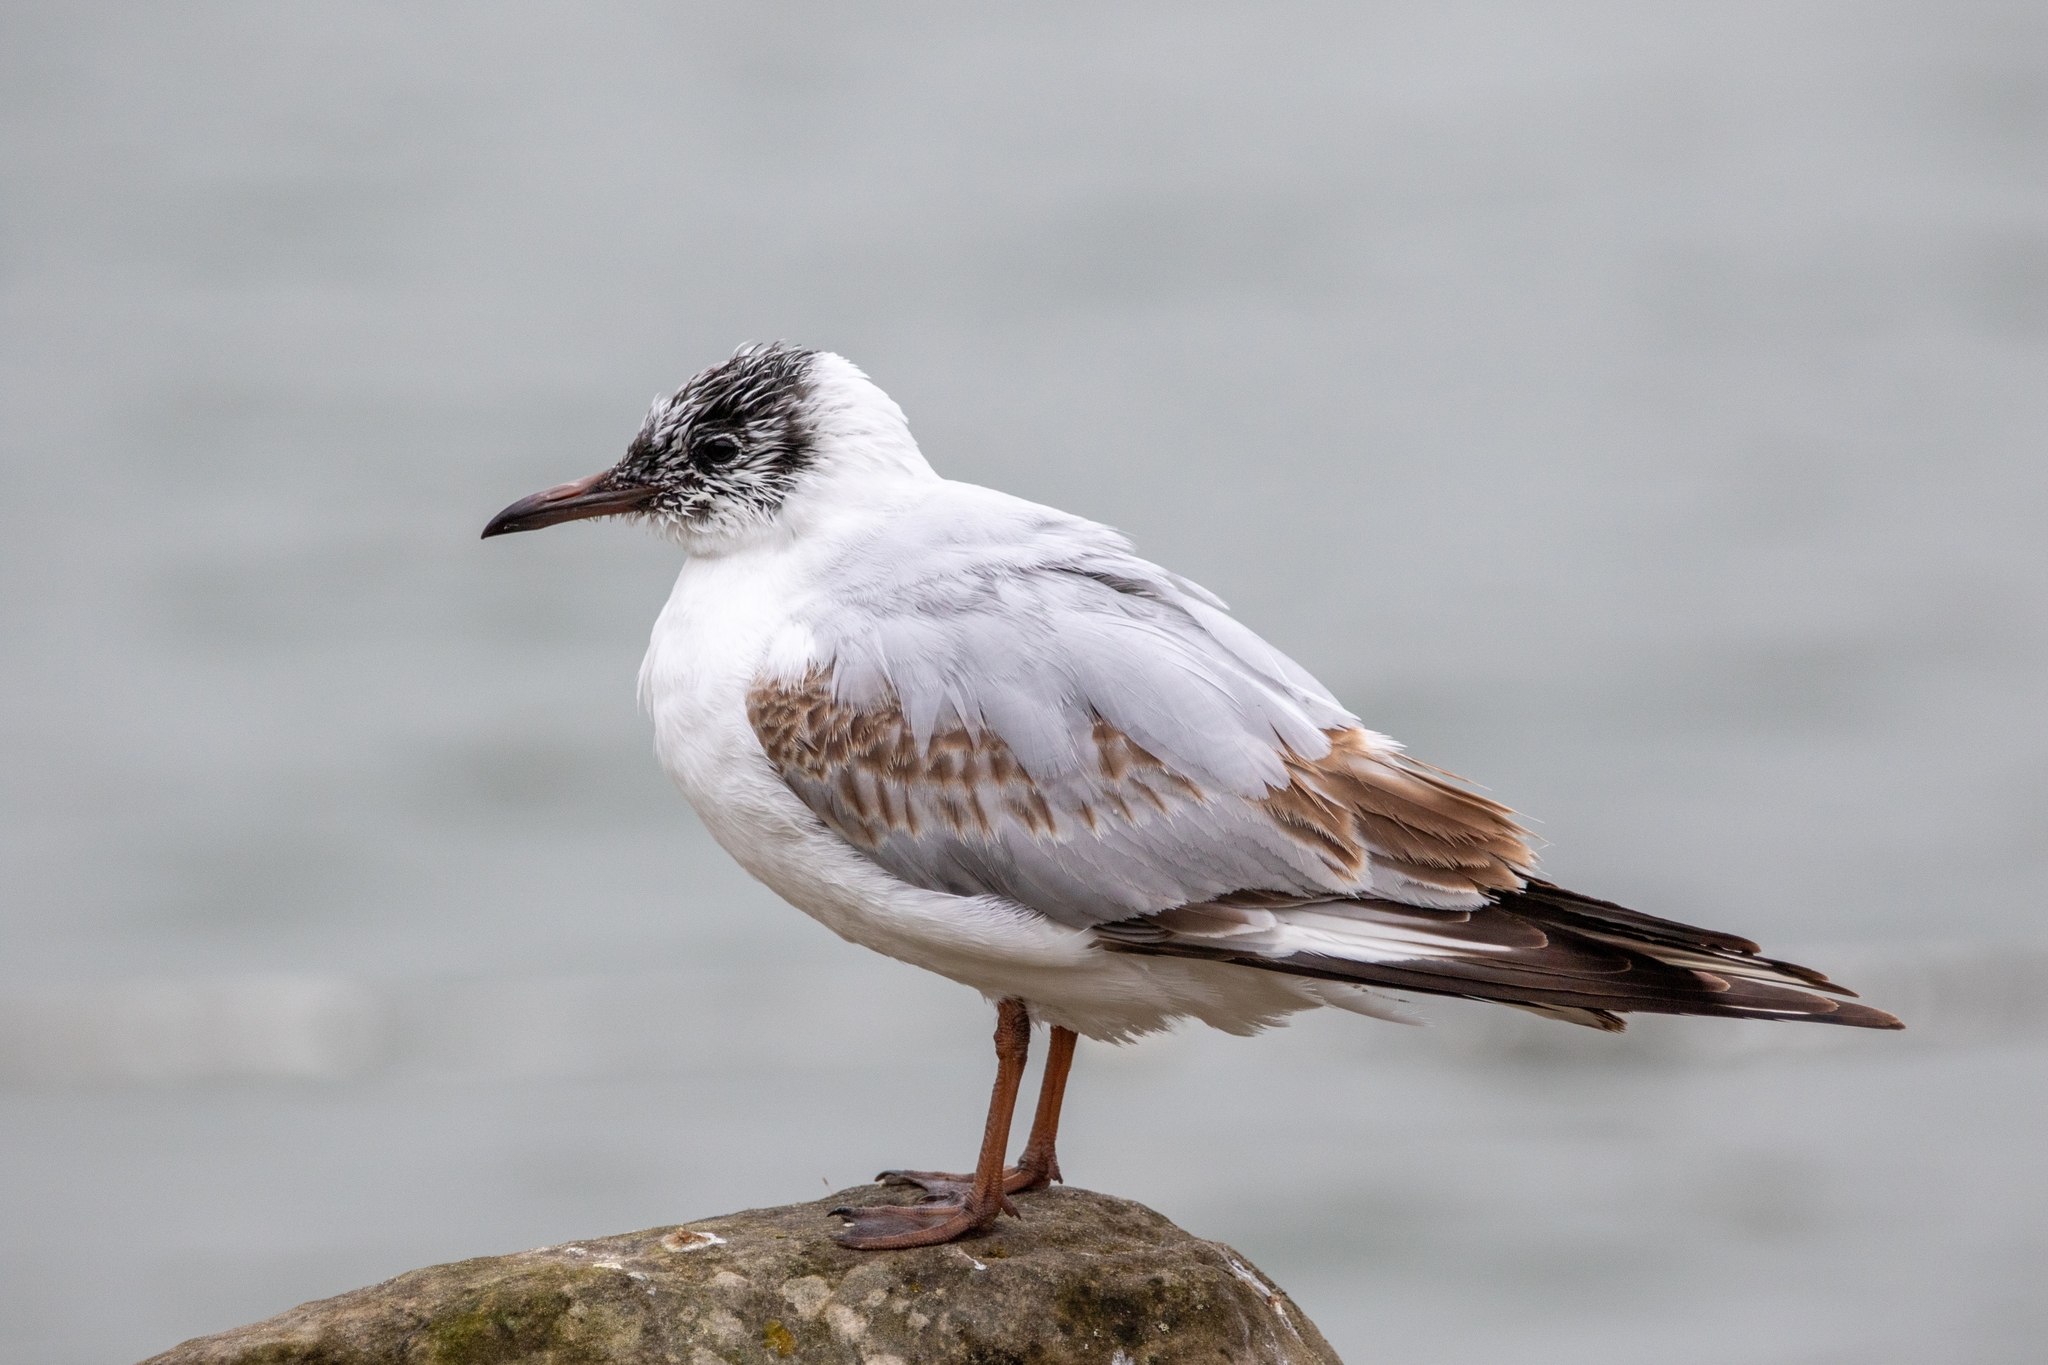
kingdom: Animalia
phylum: Chordata
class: Aves
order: Charadriiformes
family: Laridae
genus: Chroicocephalus
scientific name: Chroicocephalus ridibundus
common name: Black-headed gull
